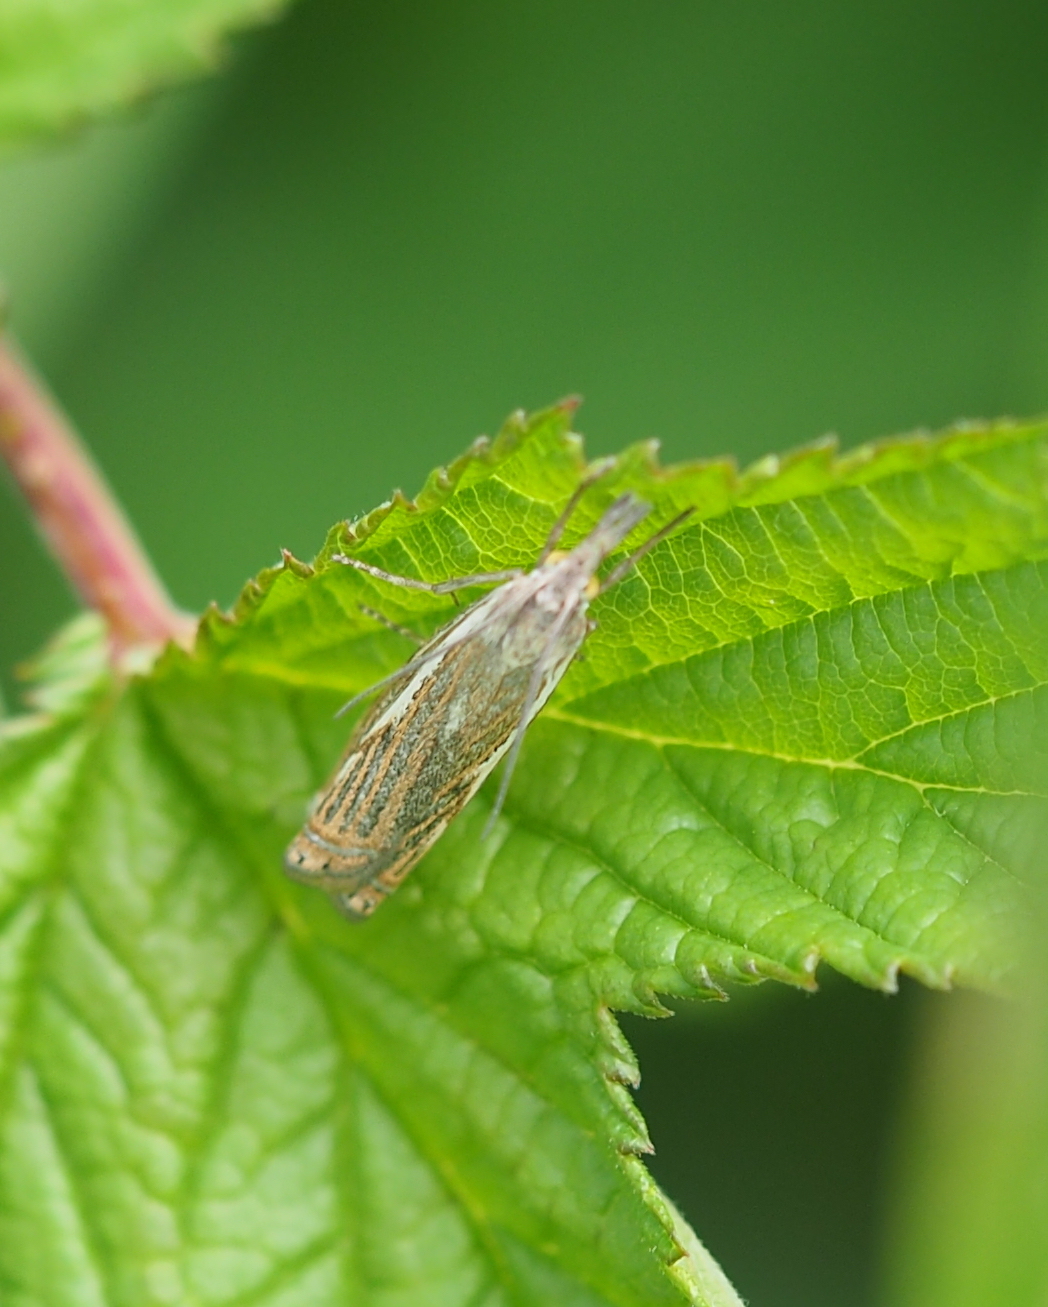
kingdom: Animalia
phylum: Arthropoda
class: Insecta
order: Lepidoptera
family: Crambidae
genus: Crambus
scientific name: Crambus nemorella
